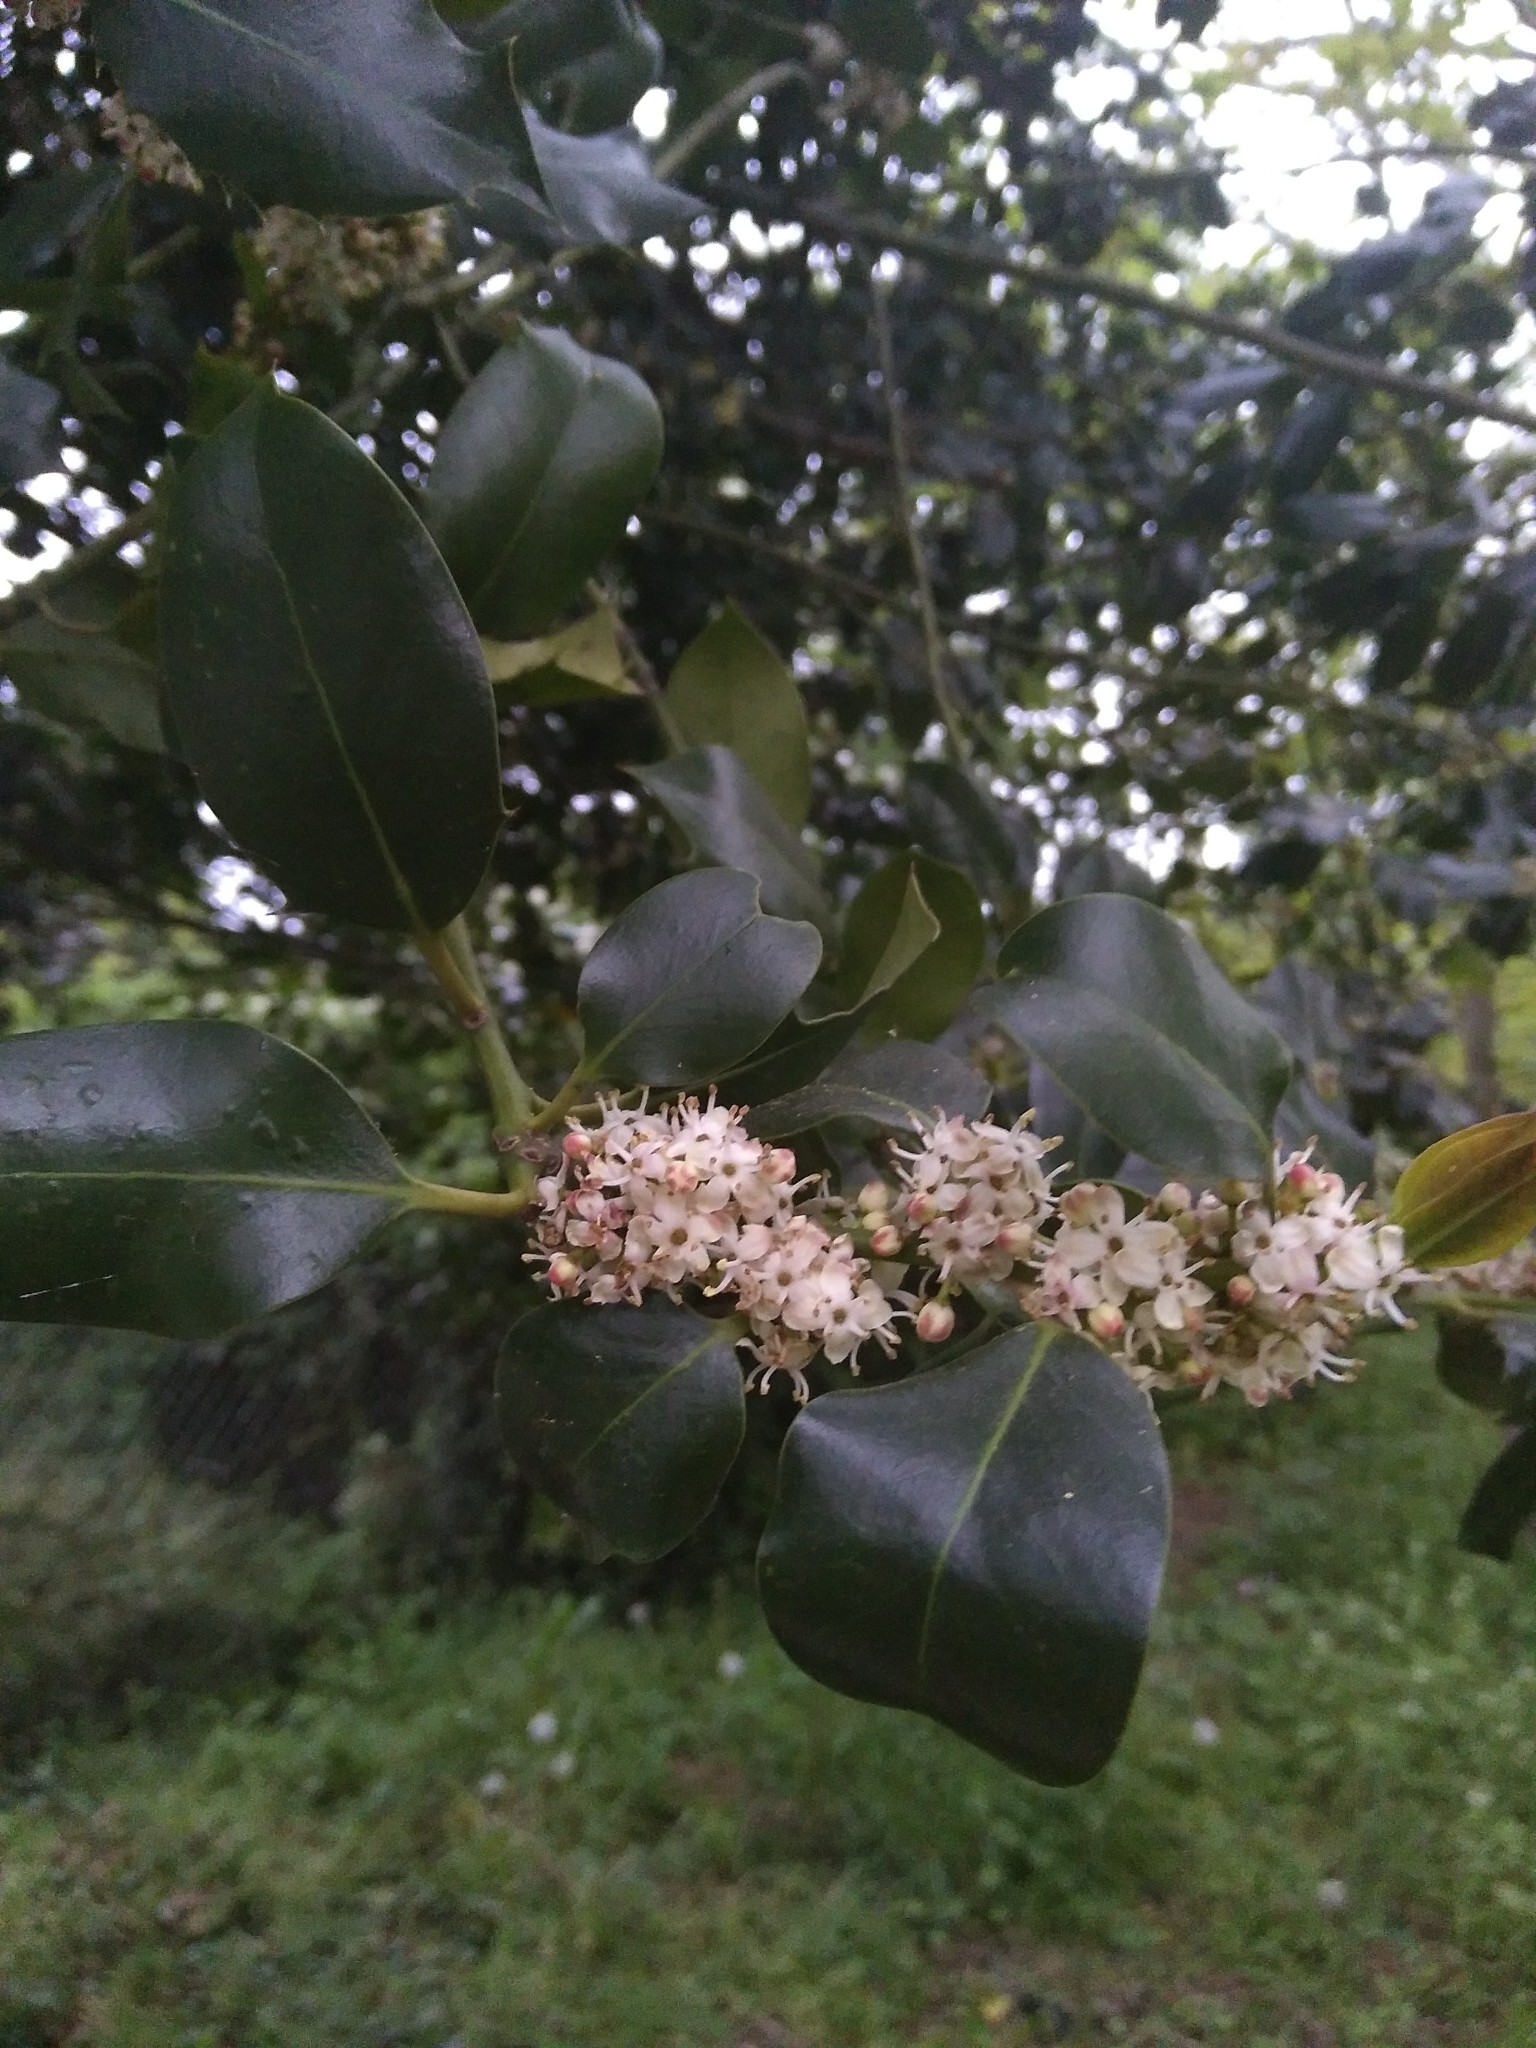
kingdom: Plantae
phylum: Tracheophyta
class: Magnoliopsida
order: Aquifoliales
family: Aquifoliaceae
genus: Ilex
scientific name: Ilex aquifolium
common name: English holly
